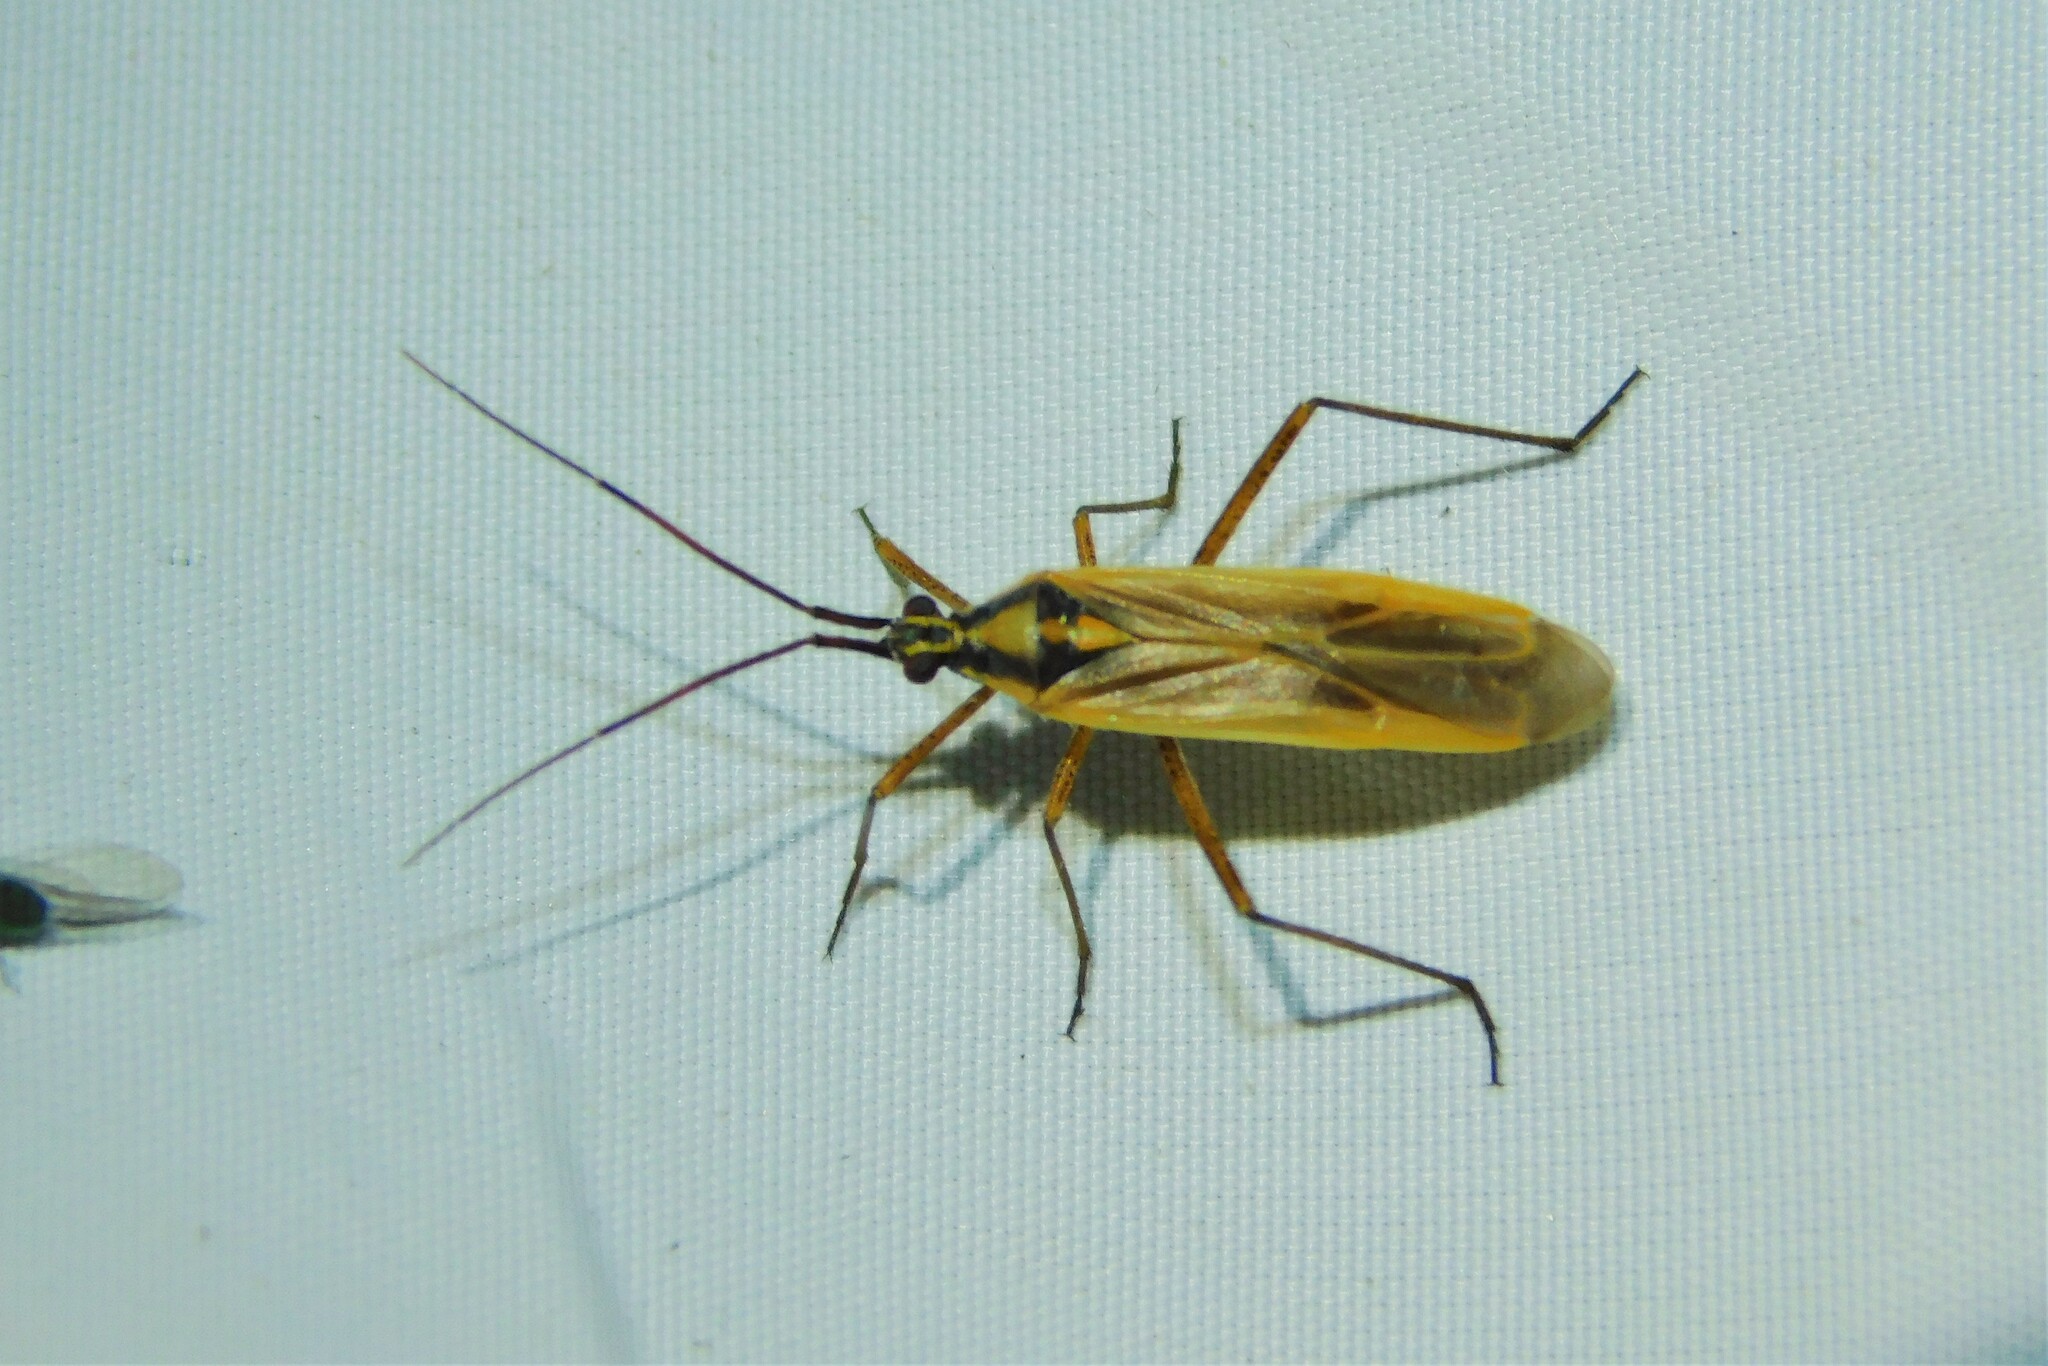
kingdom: Animalia
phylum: Arthropoda
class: Insecta
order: Hemiptera
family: Miridae
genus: Leptopterna
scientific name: Leptopterna
